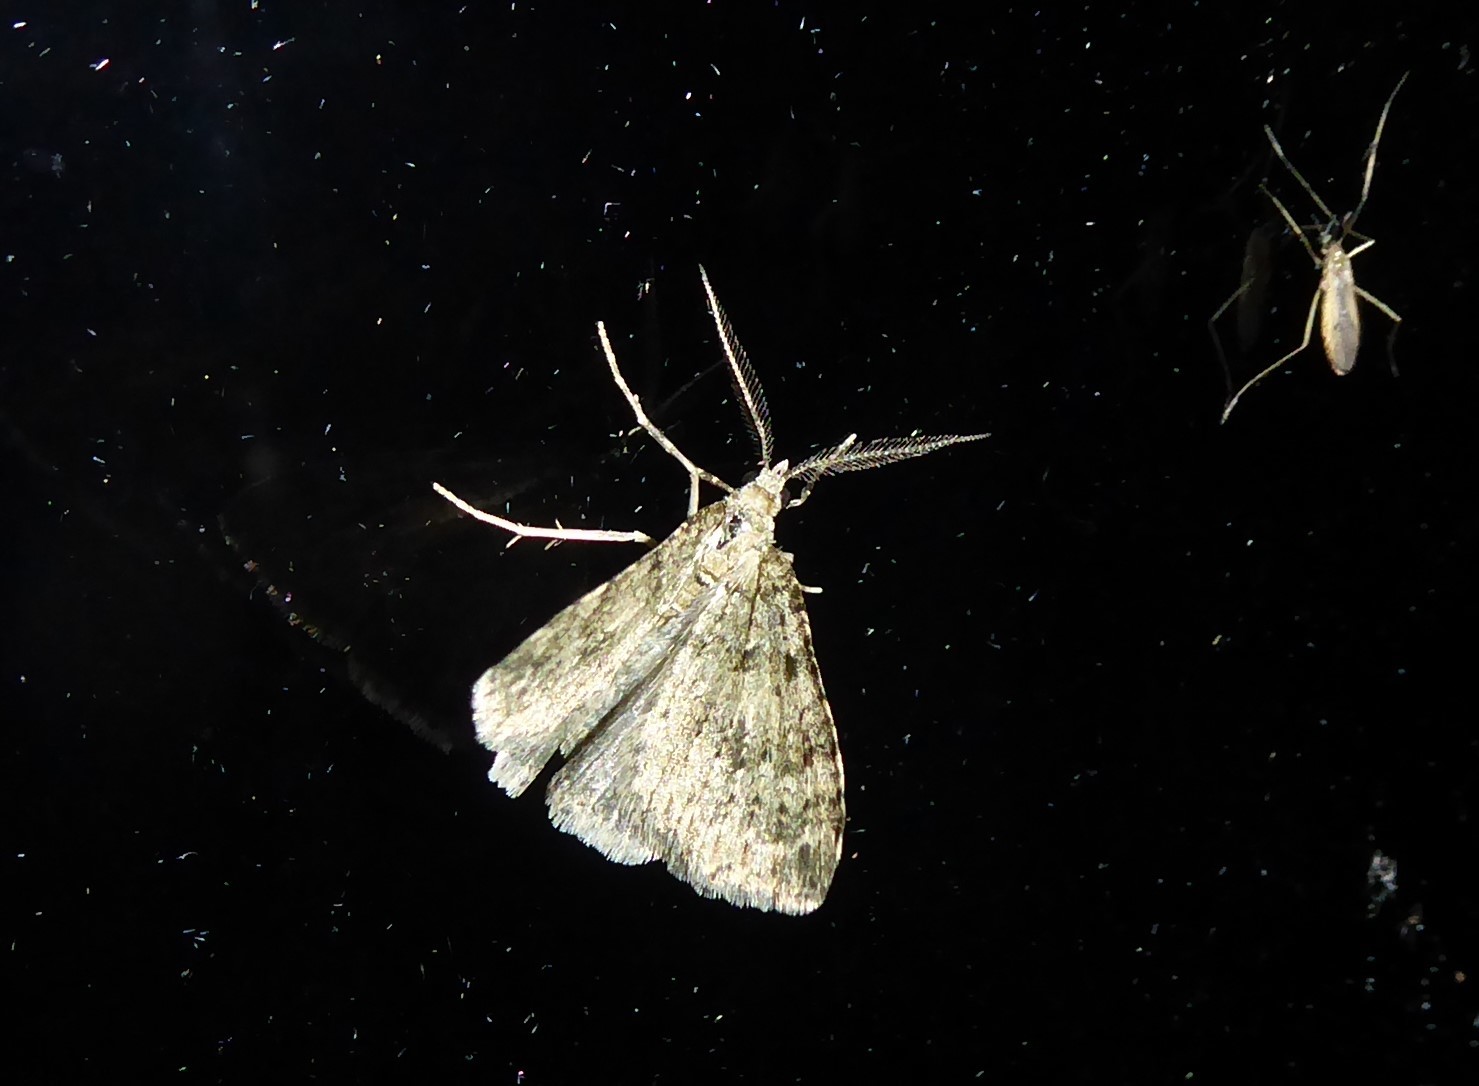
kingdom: Animalia
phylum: Arthropoda
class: Insecta
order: Lepidoptera
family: Geometridae
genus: Helastia
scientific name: Helastia corcularia
